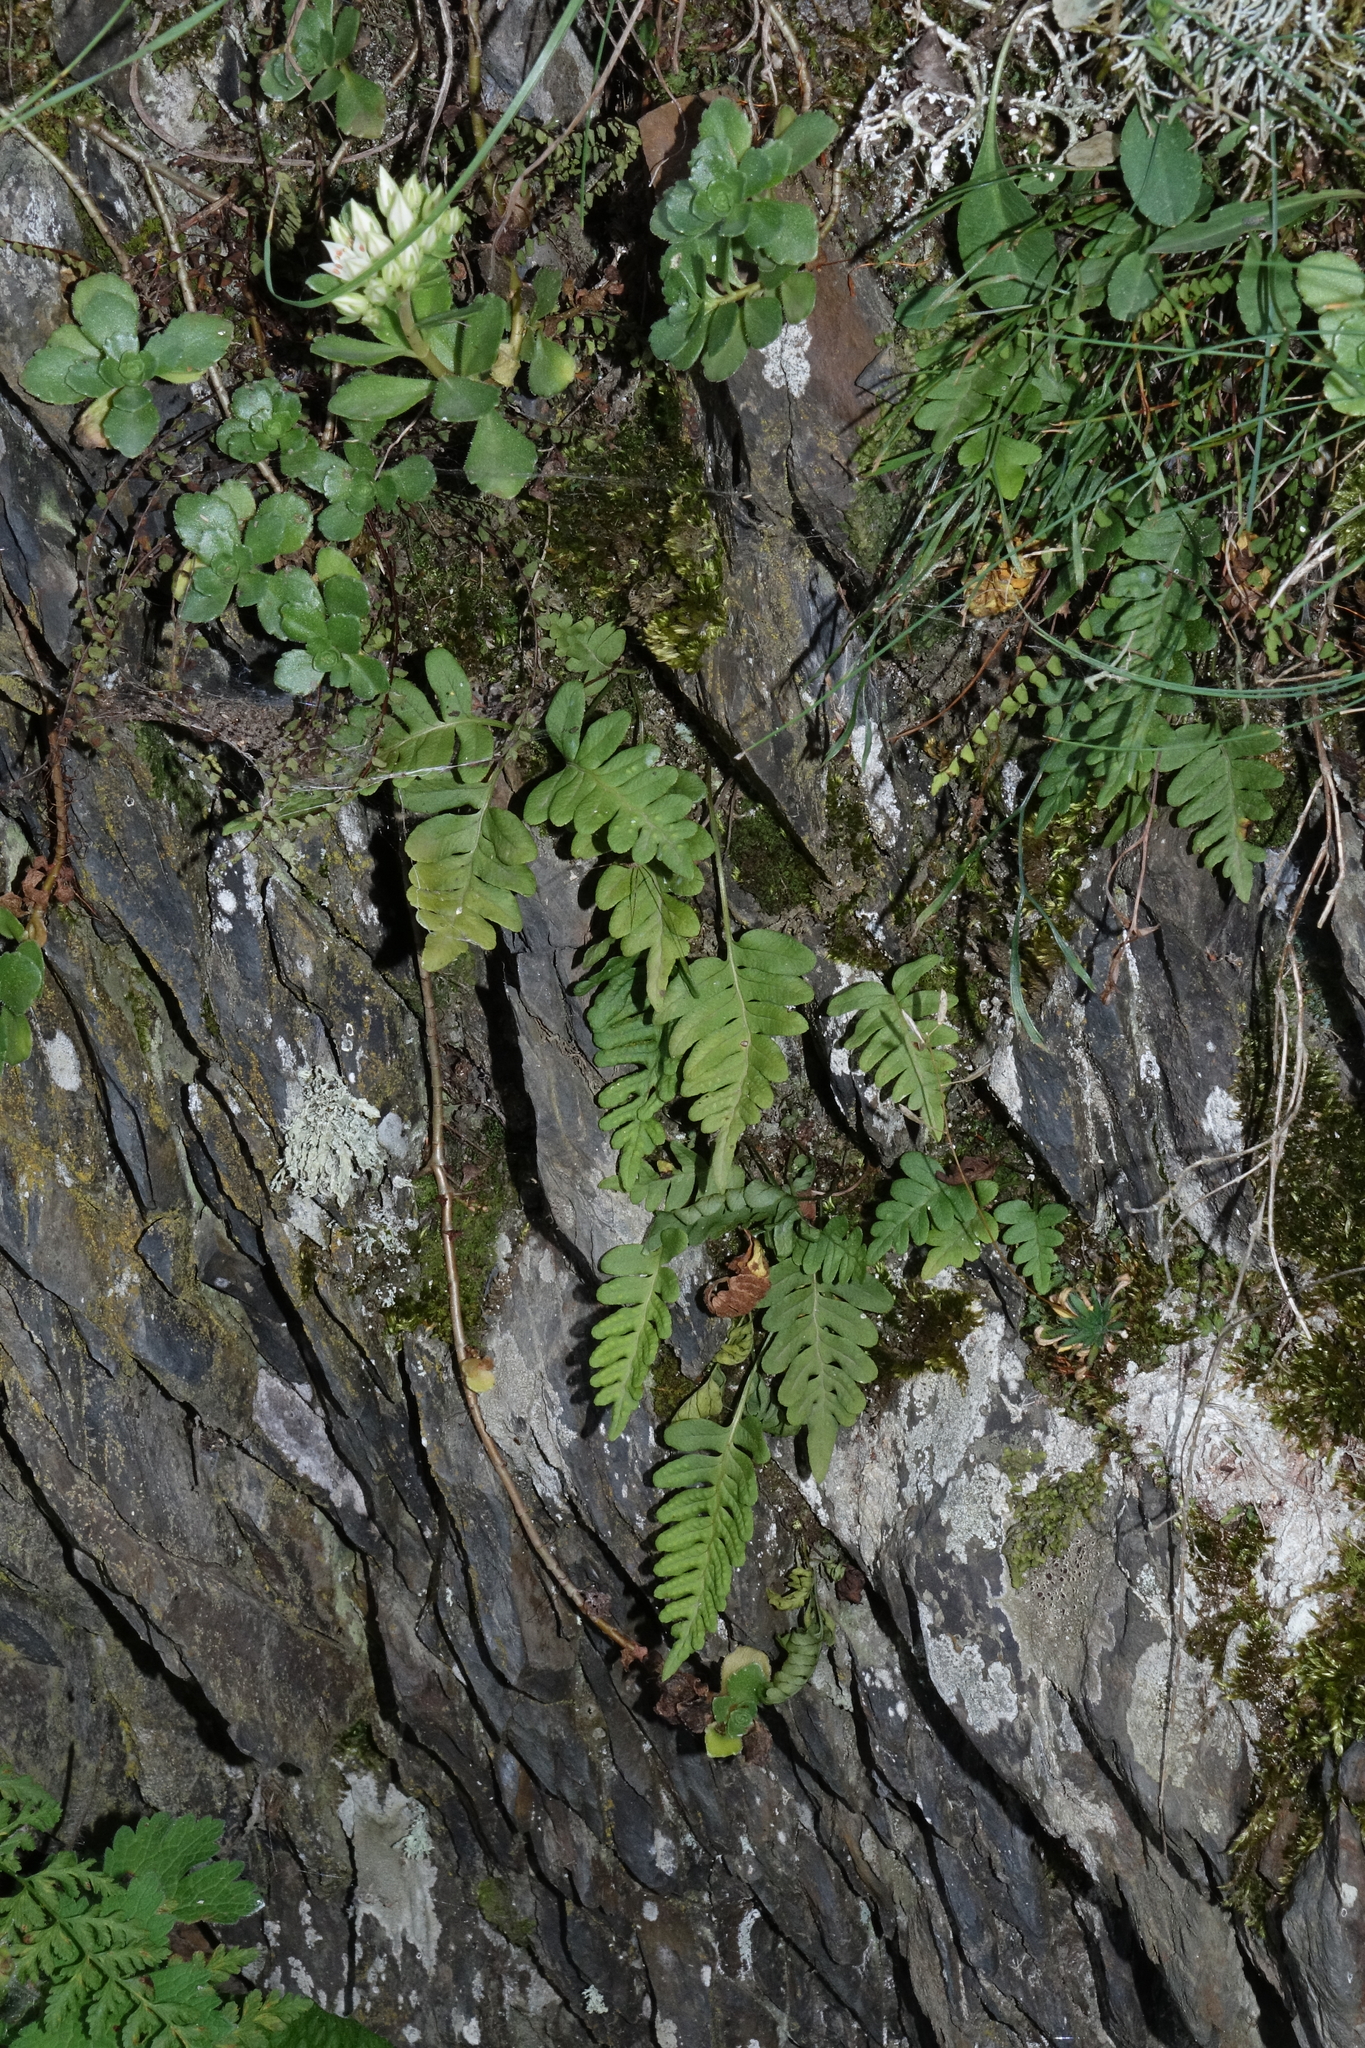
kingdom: Plantae
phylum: Tracheophyta
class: Polypodiopsida
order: Polypodiales
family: Polypodiaceae
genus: Polypodium
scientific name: Polypodium vulgare
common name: Common polypody
